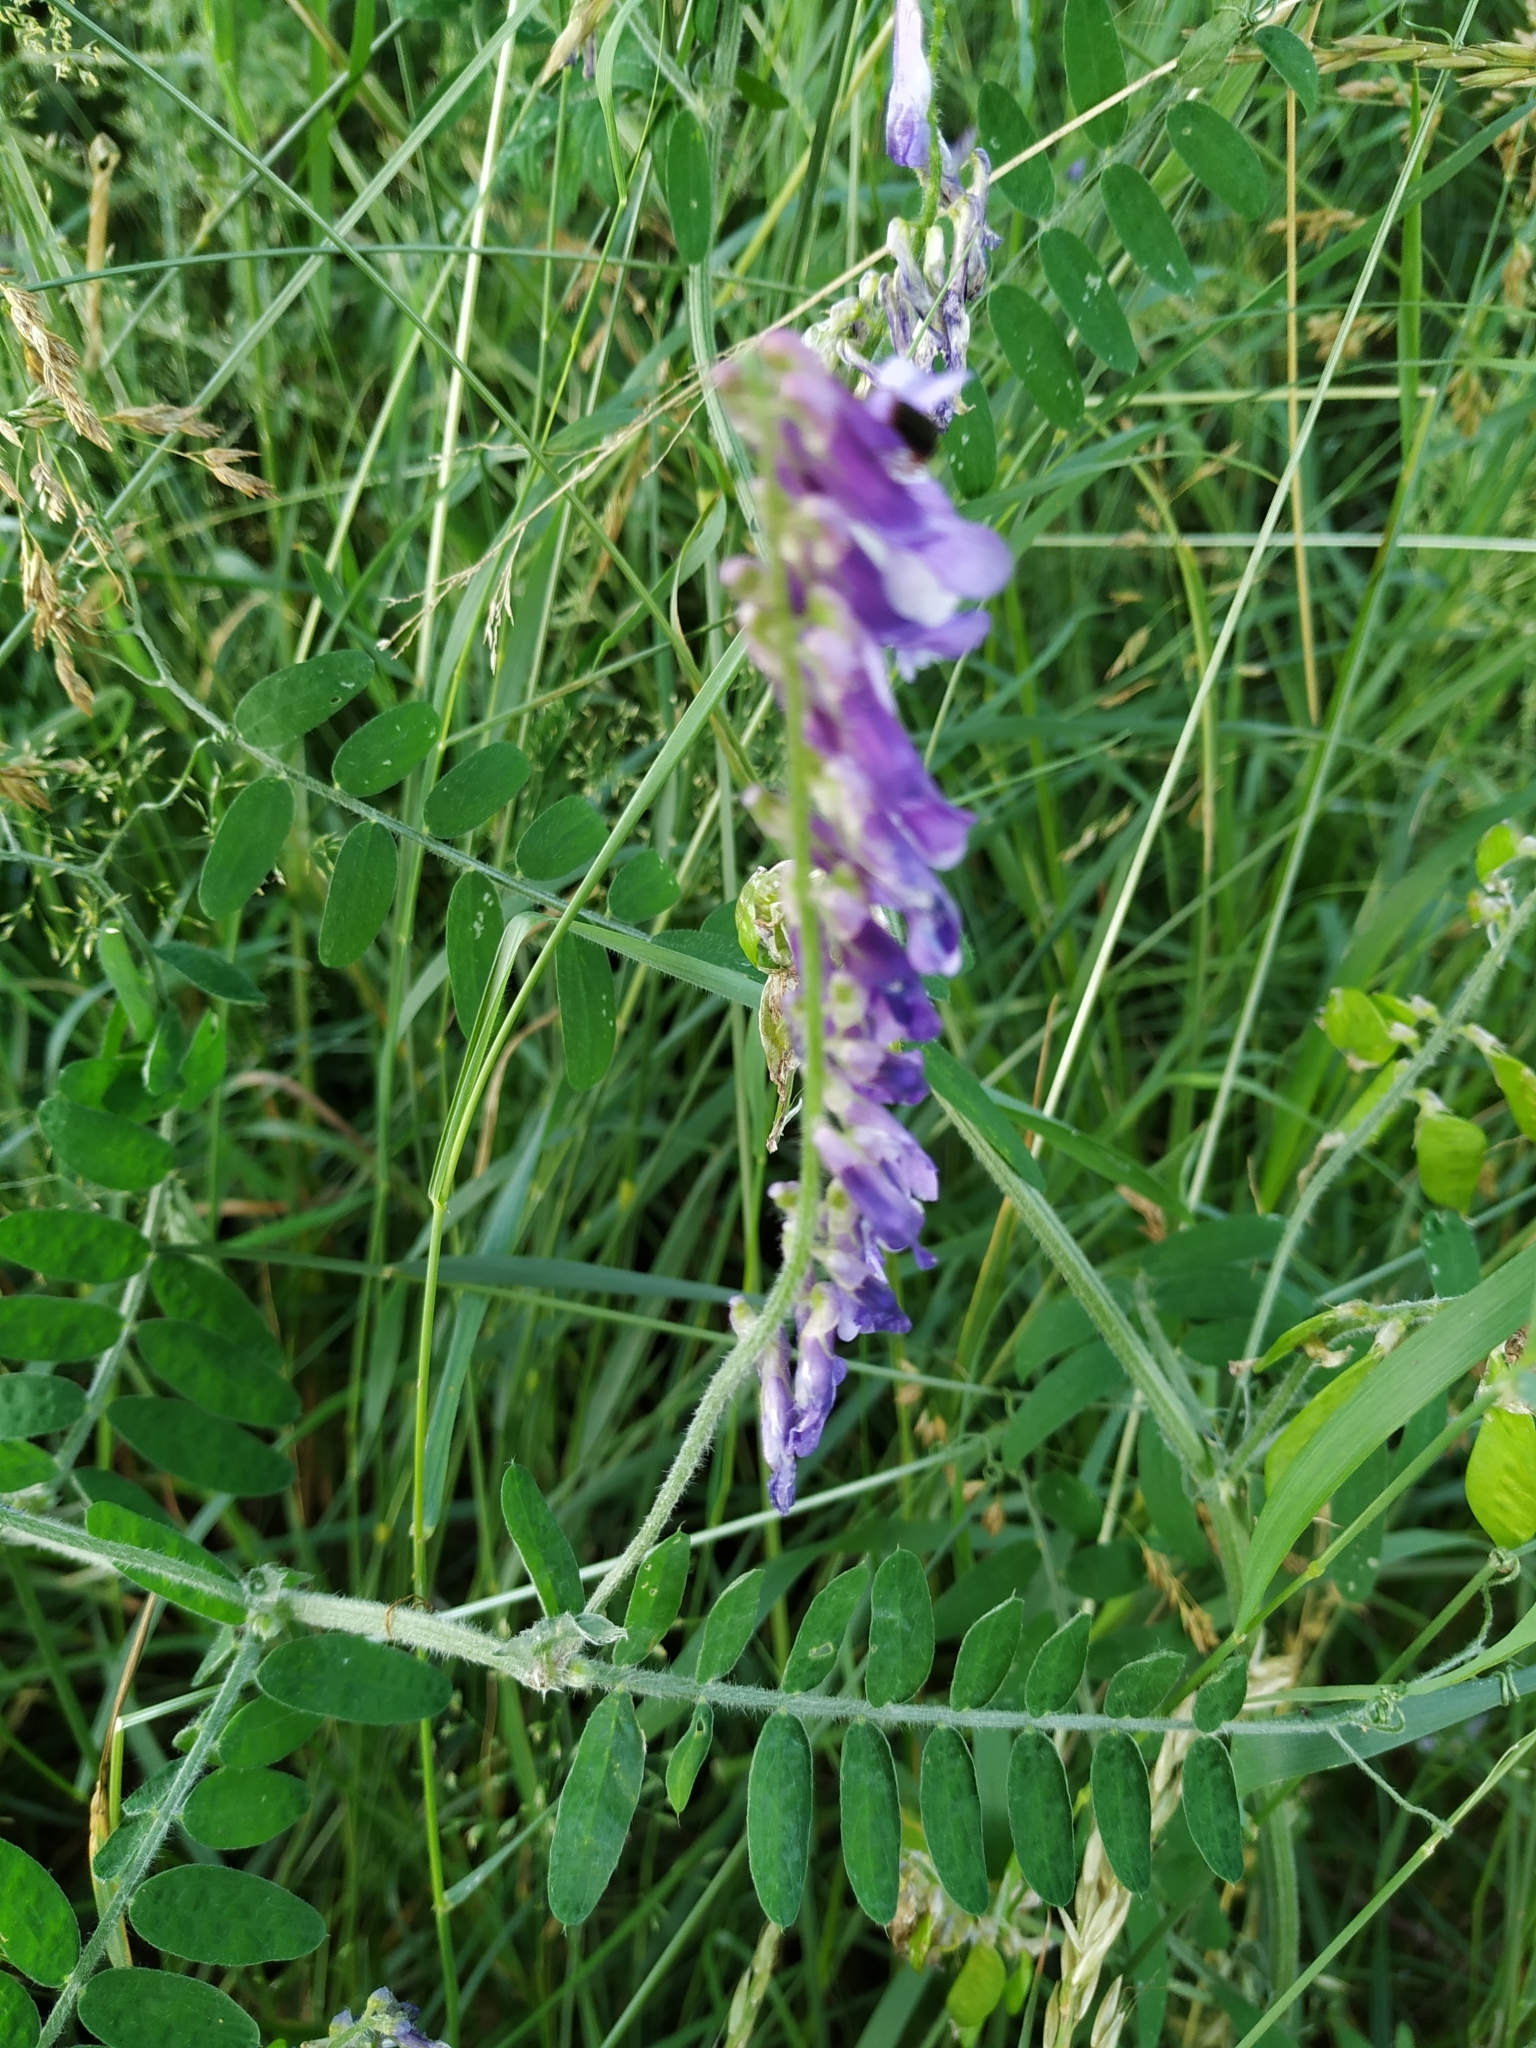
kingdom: Plantae
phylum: Tracheophyta
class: Magnoliopsida
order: Fabales
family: Fabaceae
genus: Vicia
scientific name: Vicia villosa
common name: Fodder vetch
